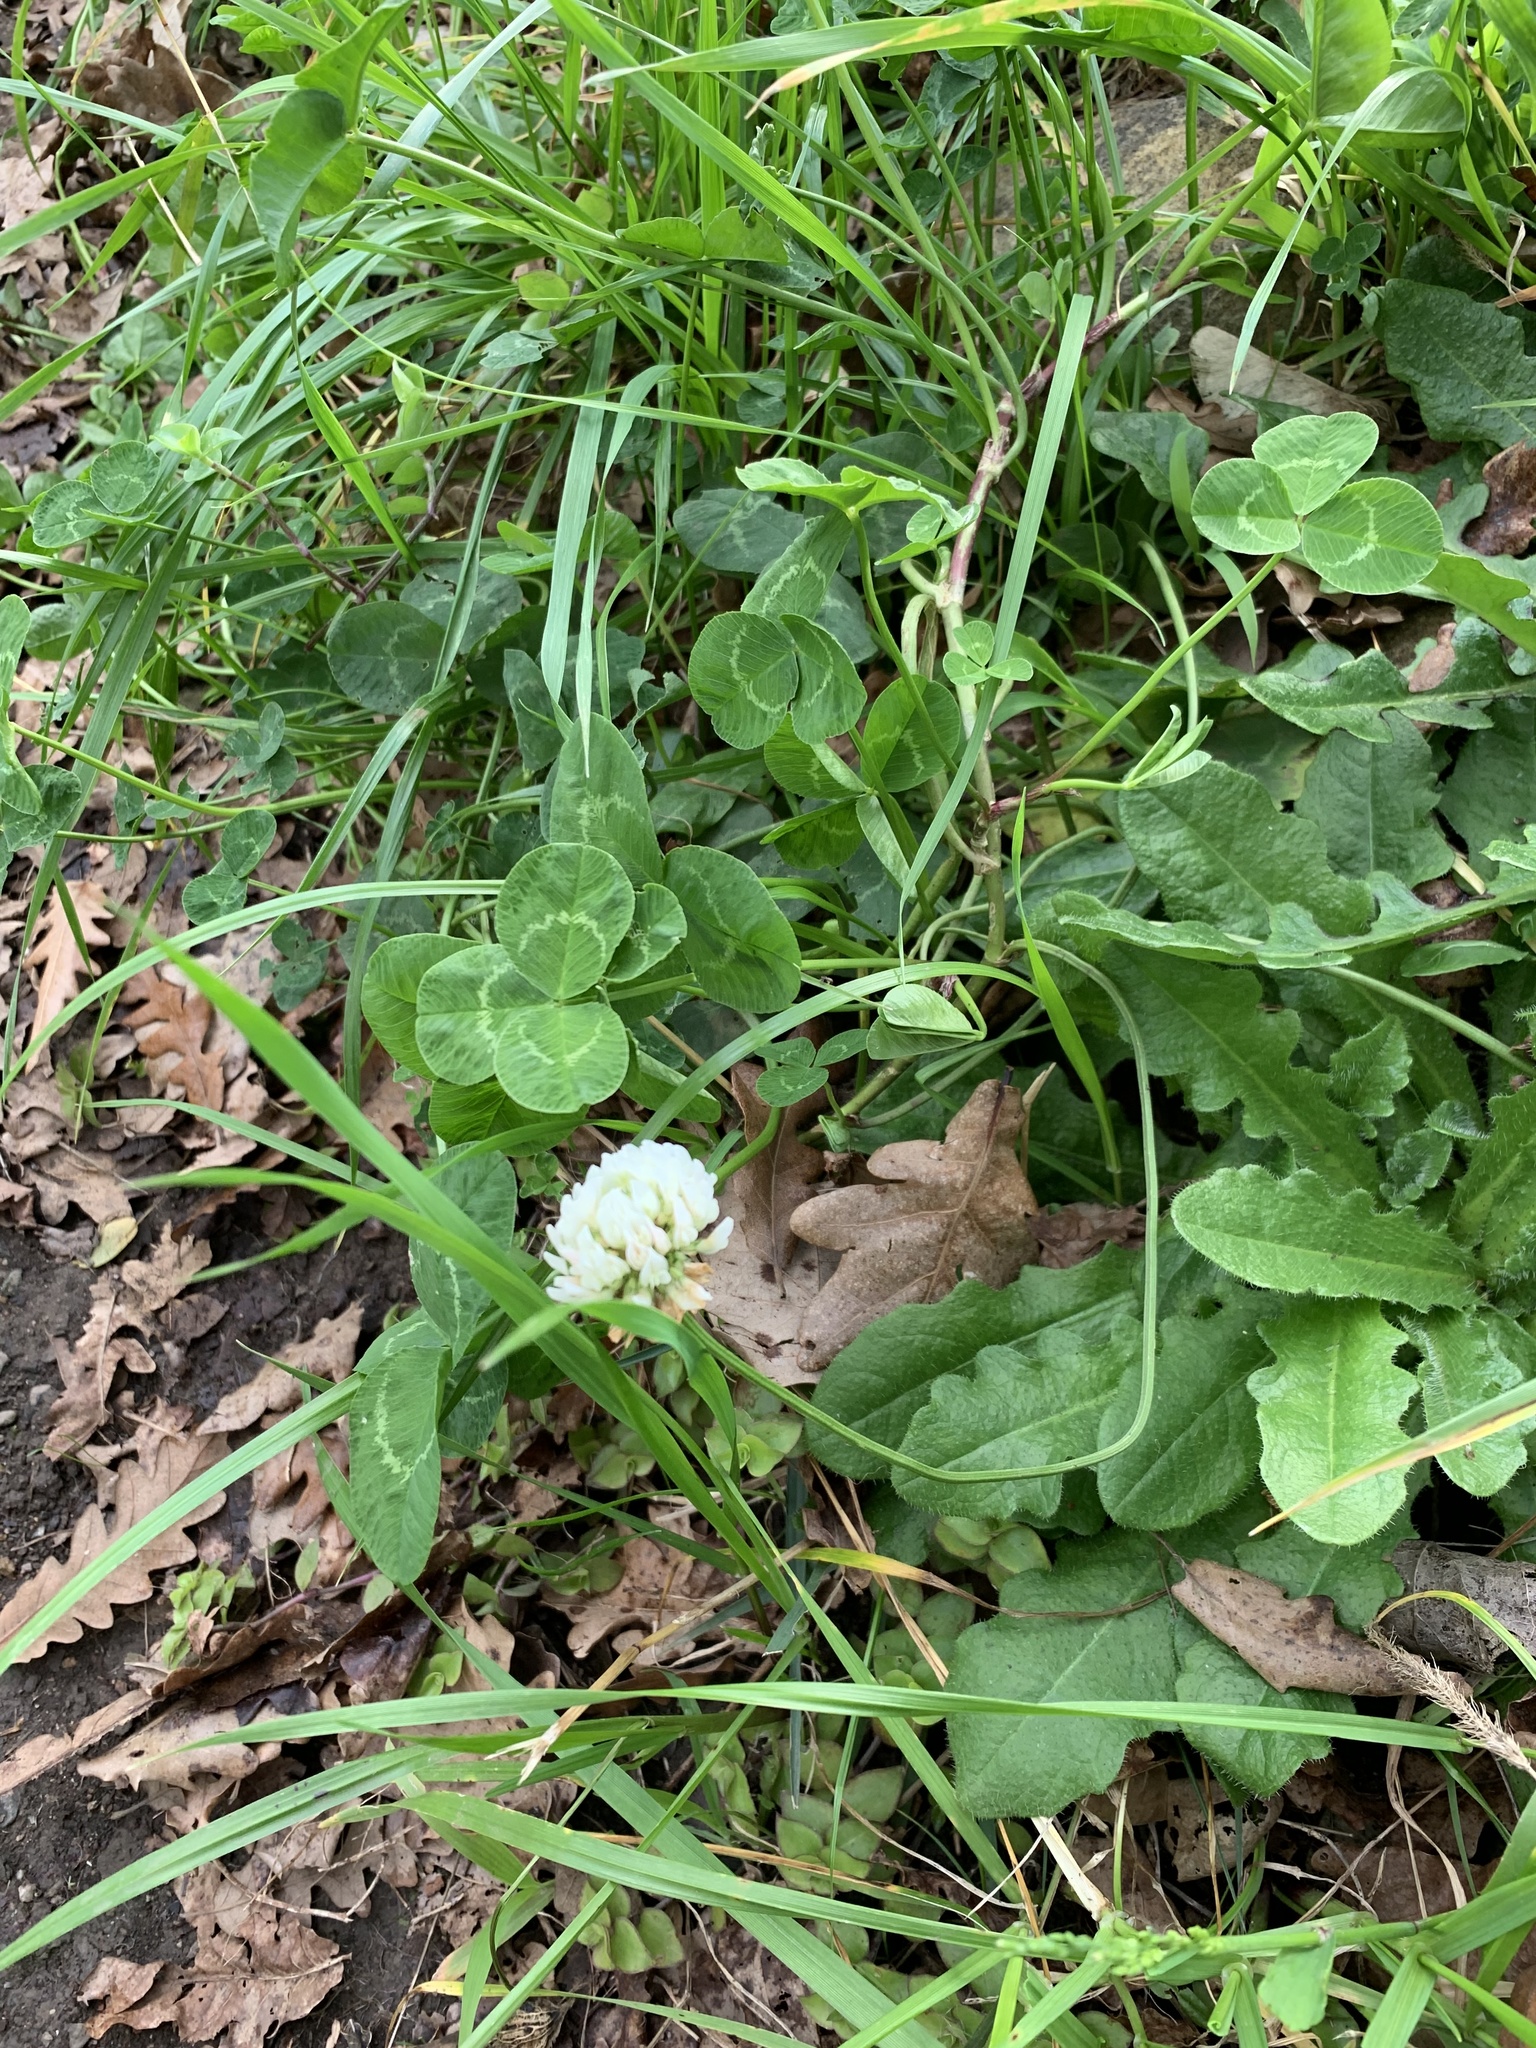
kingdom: Plantae
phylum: Tracheophyta
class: Magnoliopsida
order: Fabales
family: Fabaceae
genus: Trifolium
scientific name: Trifolium repens
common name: White clover
